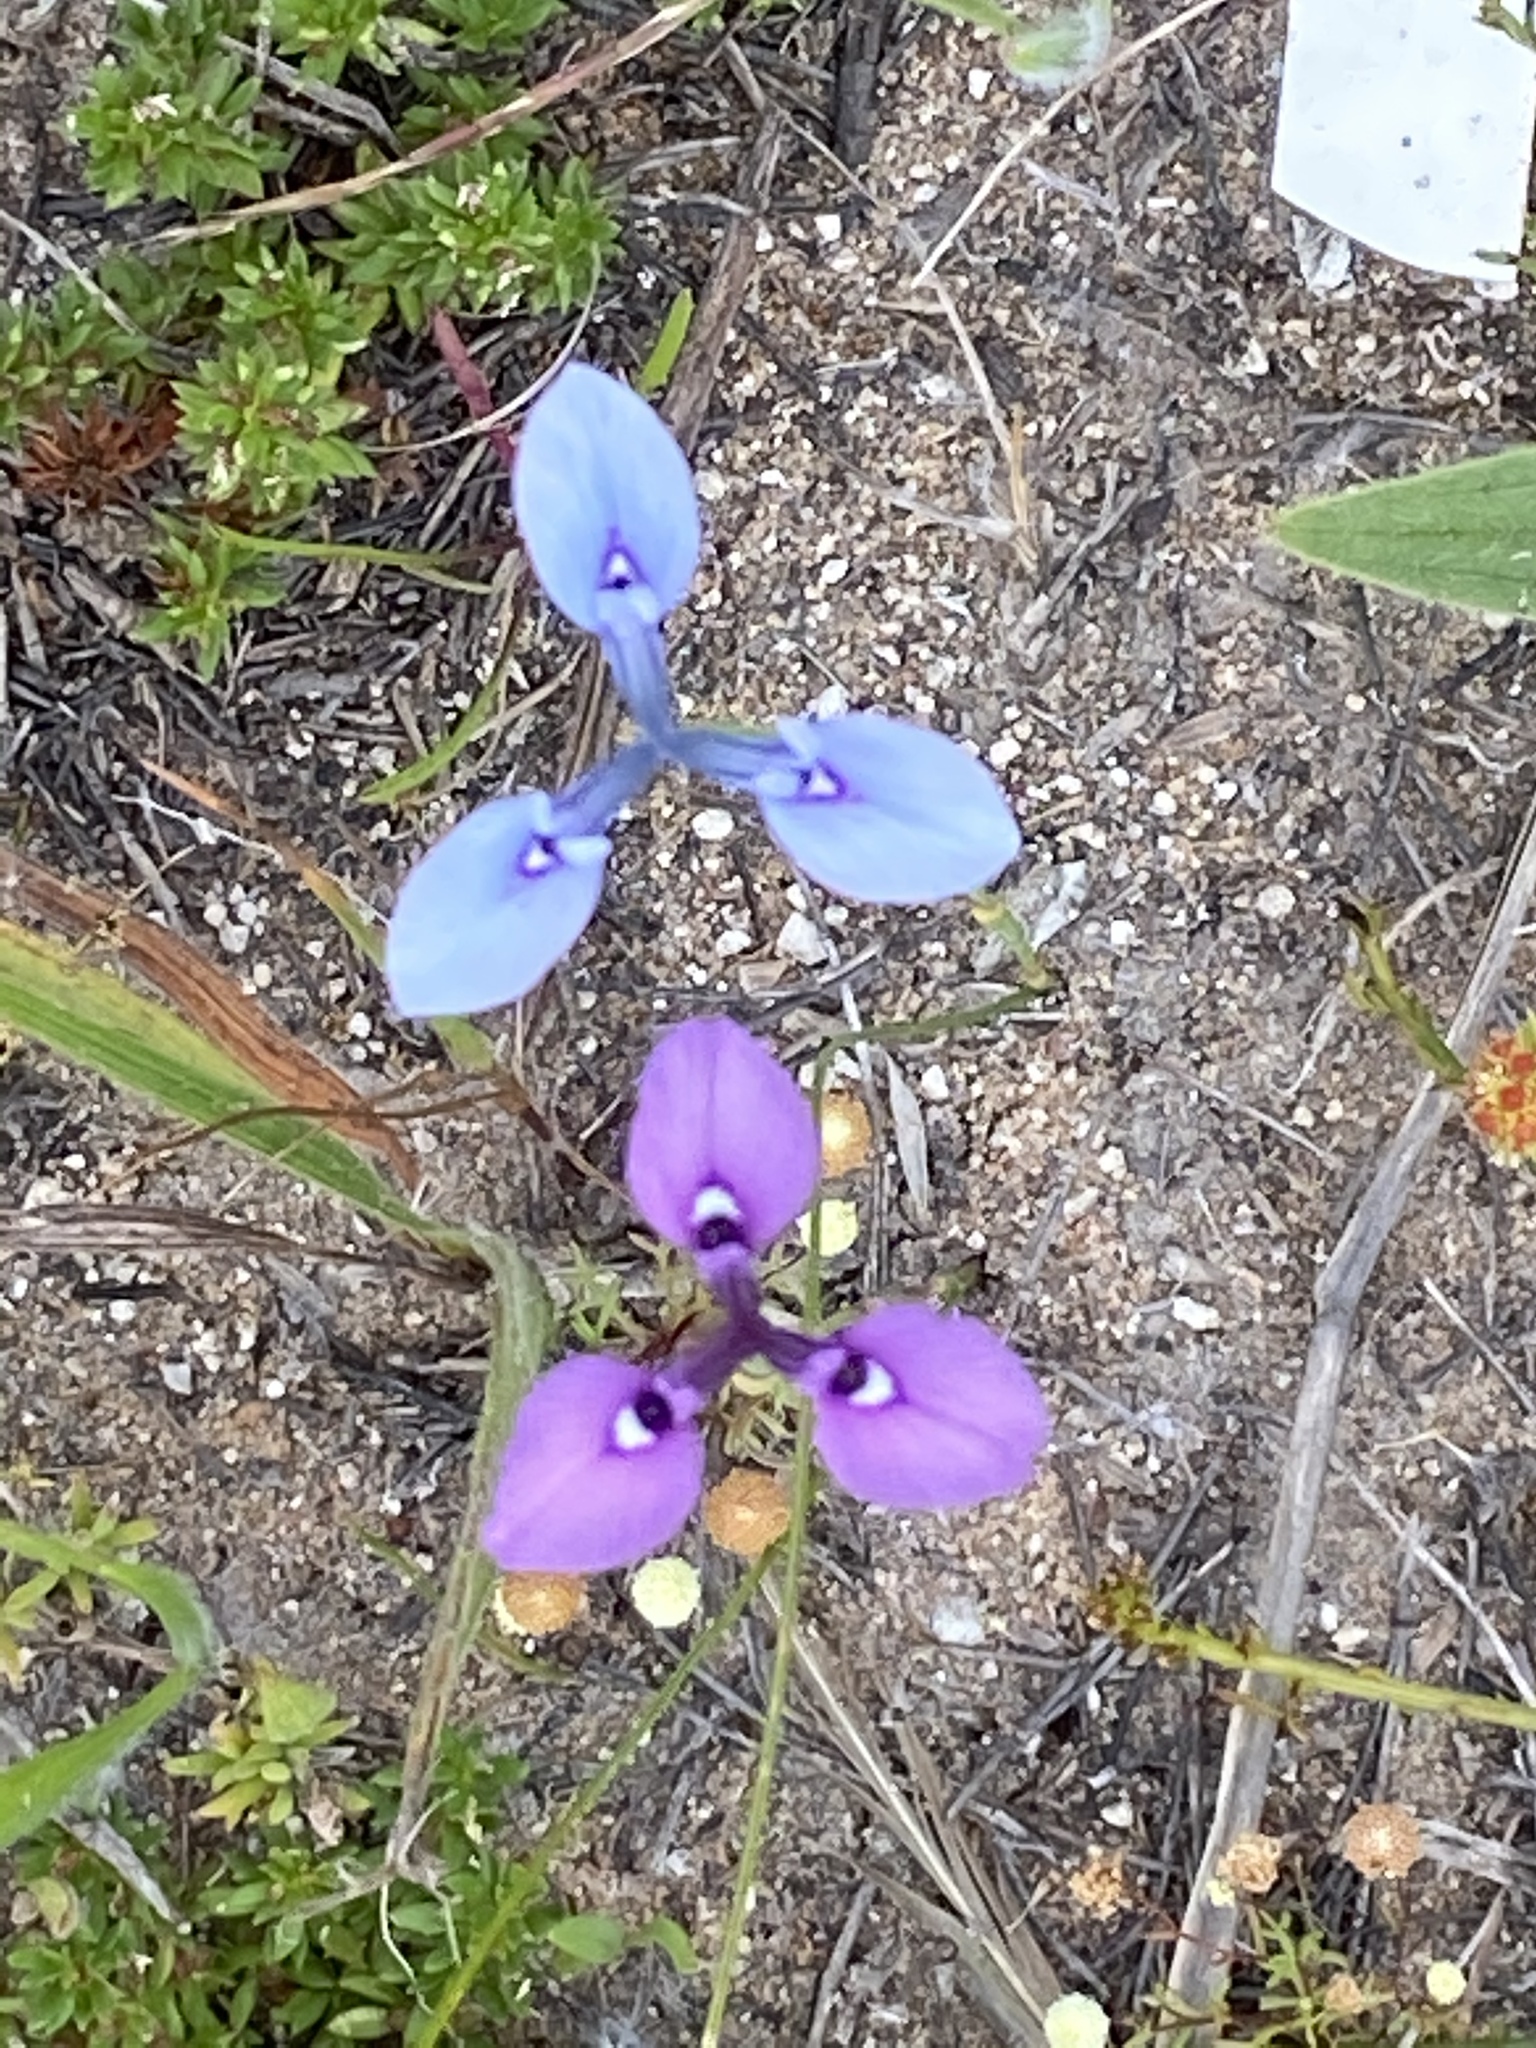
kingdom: Plantae
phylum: Tracheophyta
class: Liliopsida
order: Asparagales
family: Iridaceae
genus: Moraea
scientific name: Moraea tripetala
